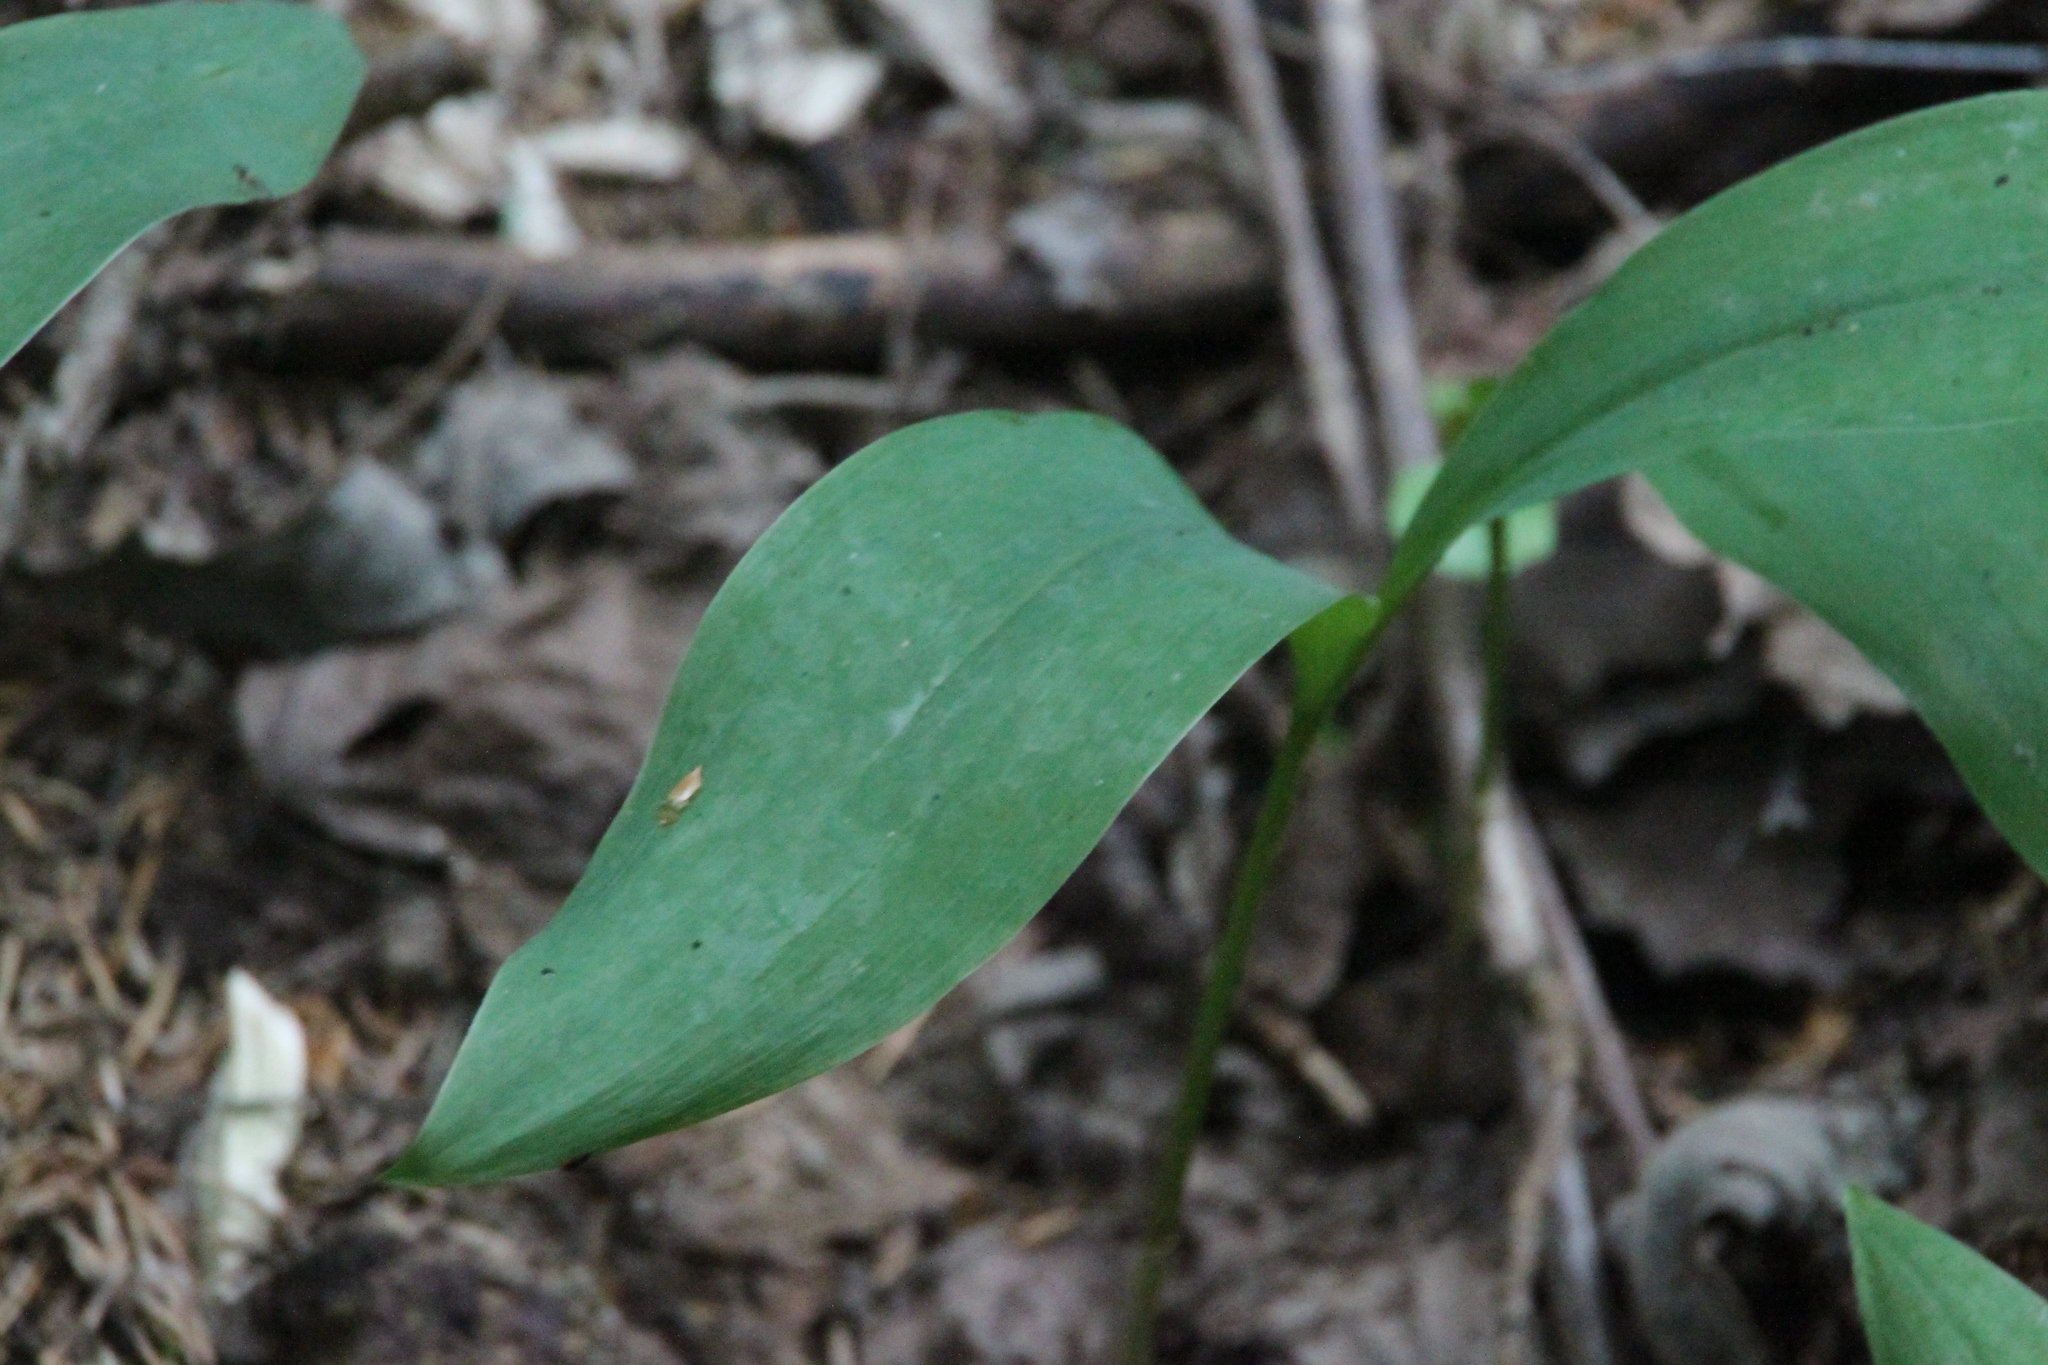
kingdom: Plantae
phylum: Tracheophyta
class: Liliopsida
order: Asparagales
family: Asparagaceae
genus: Convallaria
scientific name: Convallaria majalis
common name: Lily-of-the-valley
